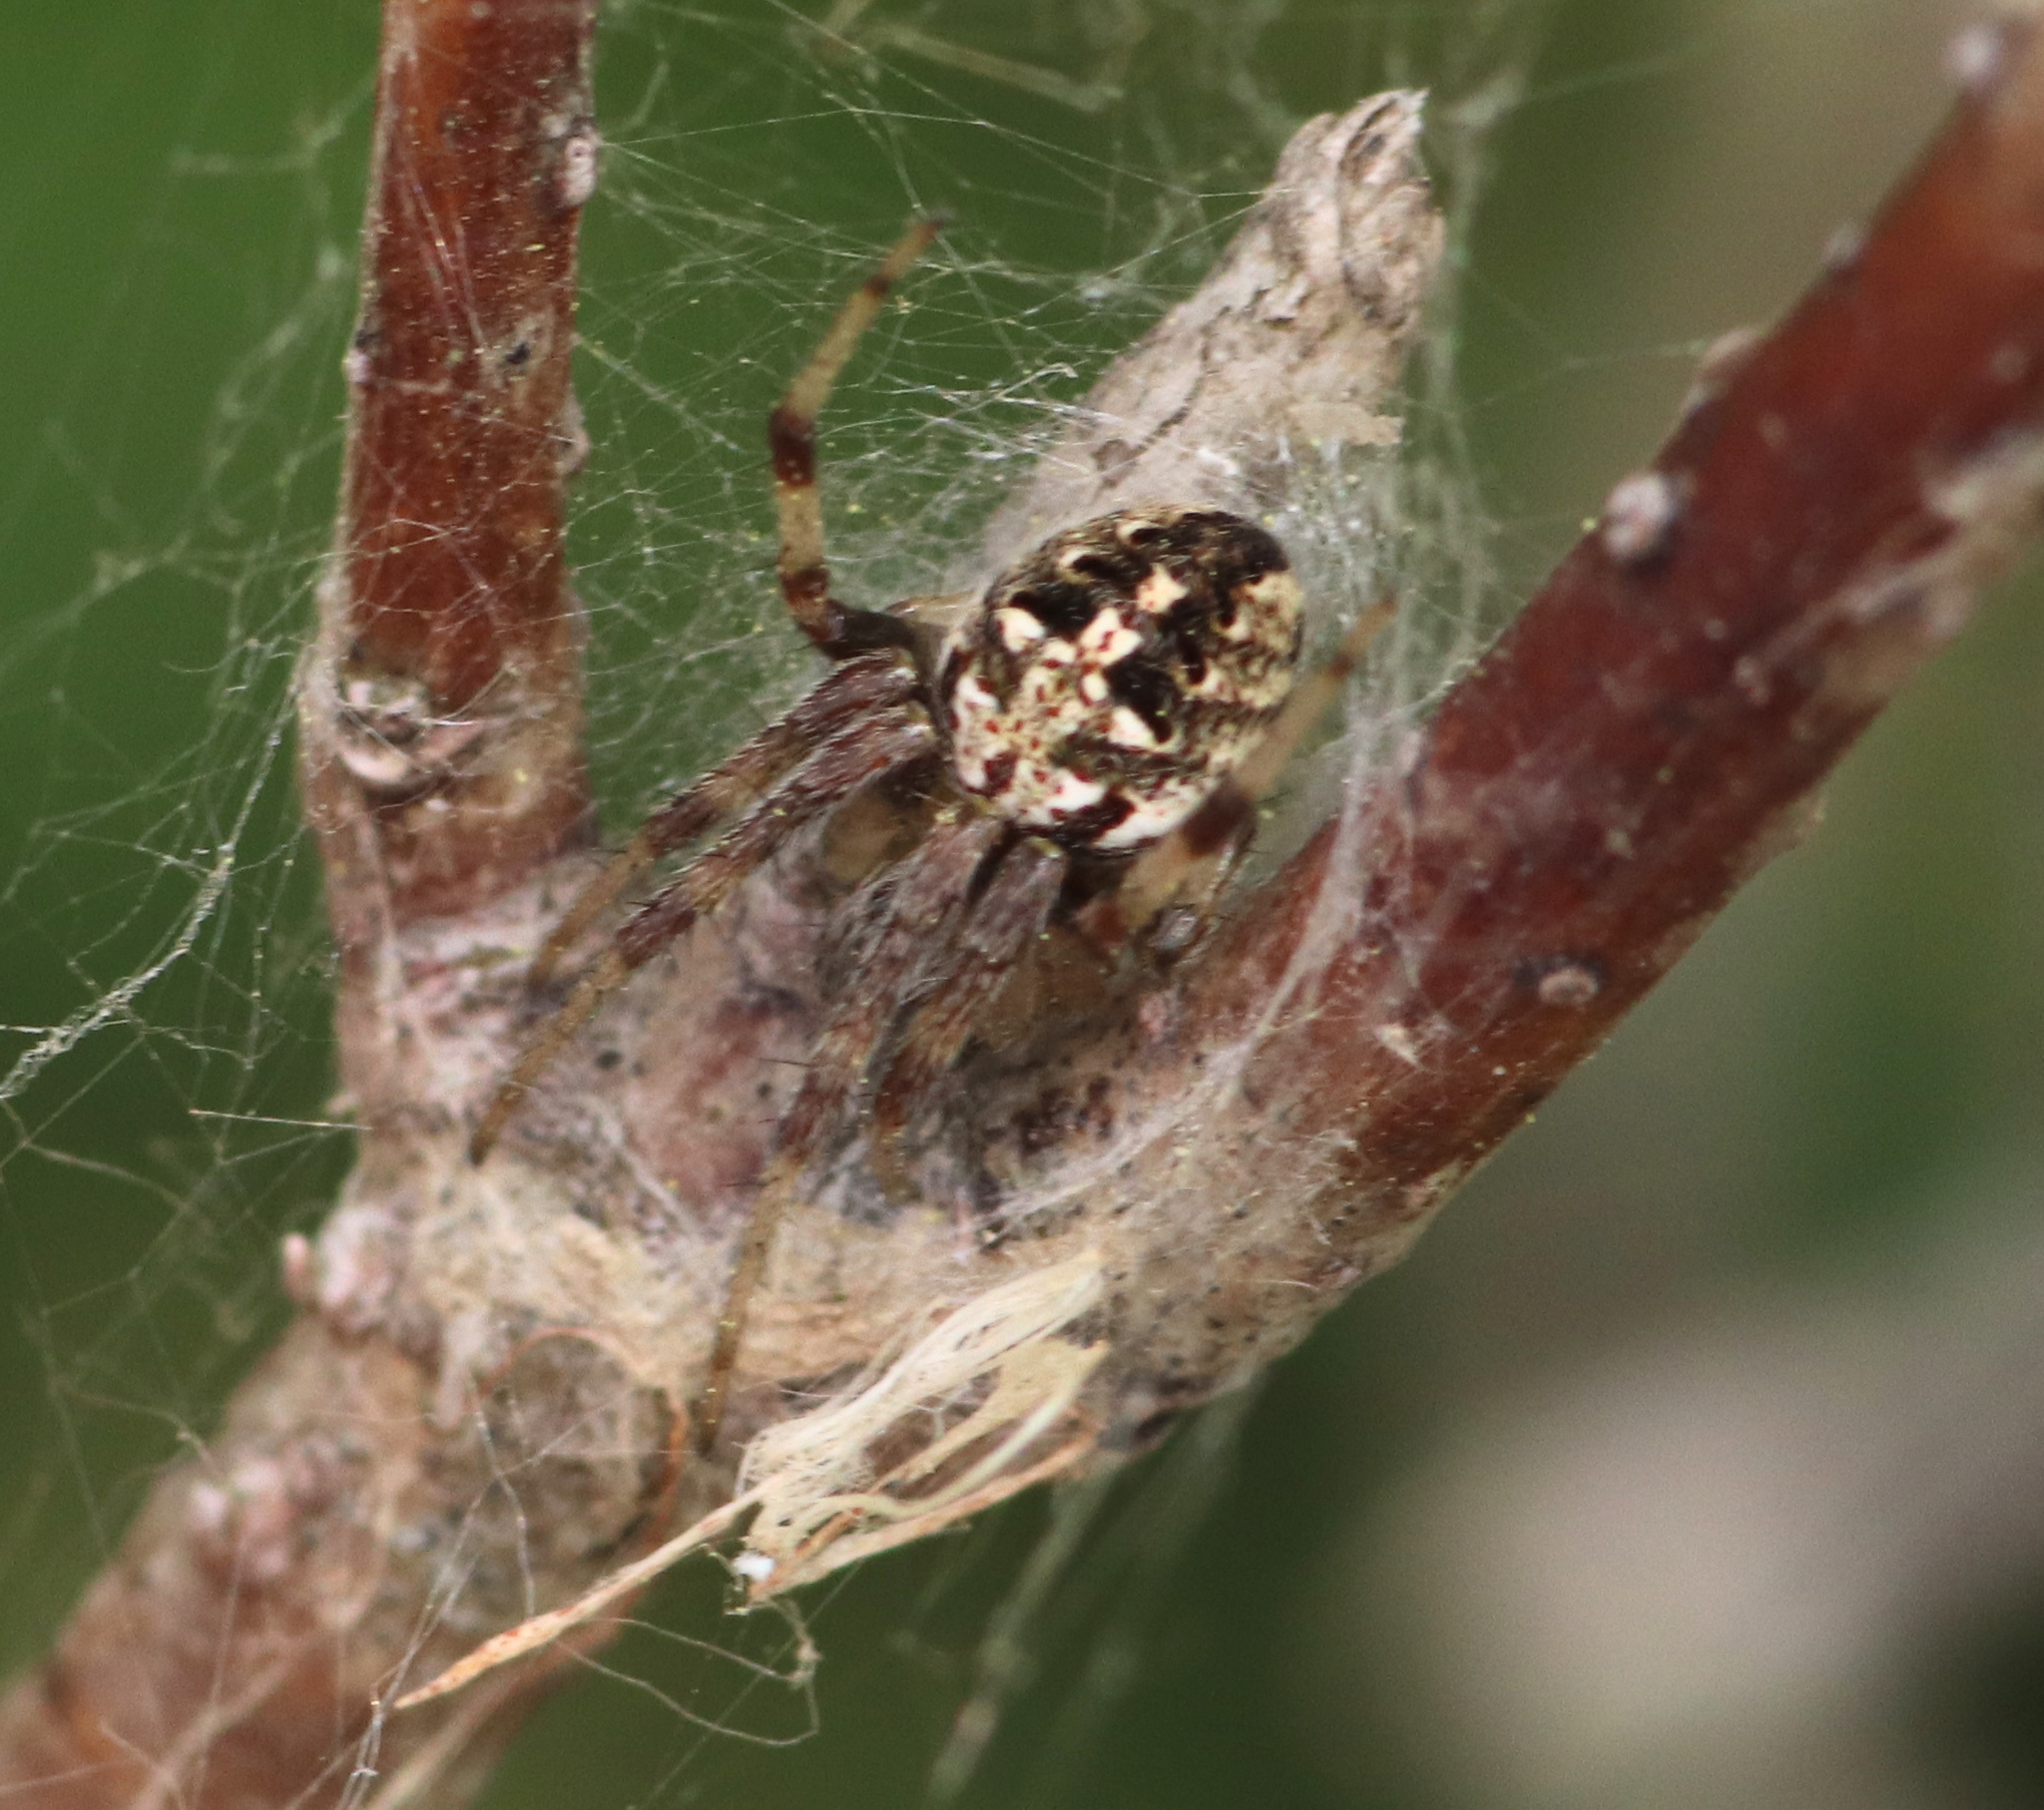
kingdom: Animalia
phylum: Arthropoda
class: Arachnida
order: Araneae
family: Araneidae
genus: Neoscona
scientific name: Neoscona arabesca
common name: Orb weavers
